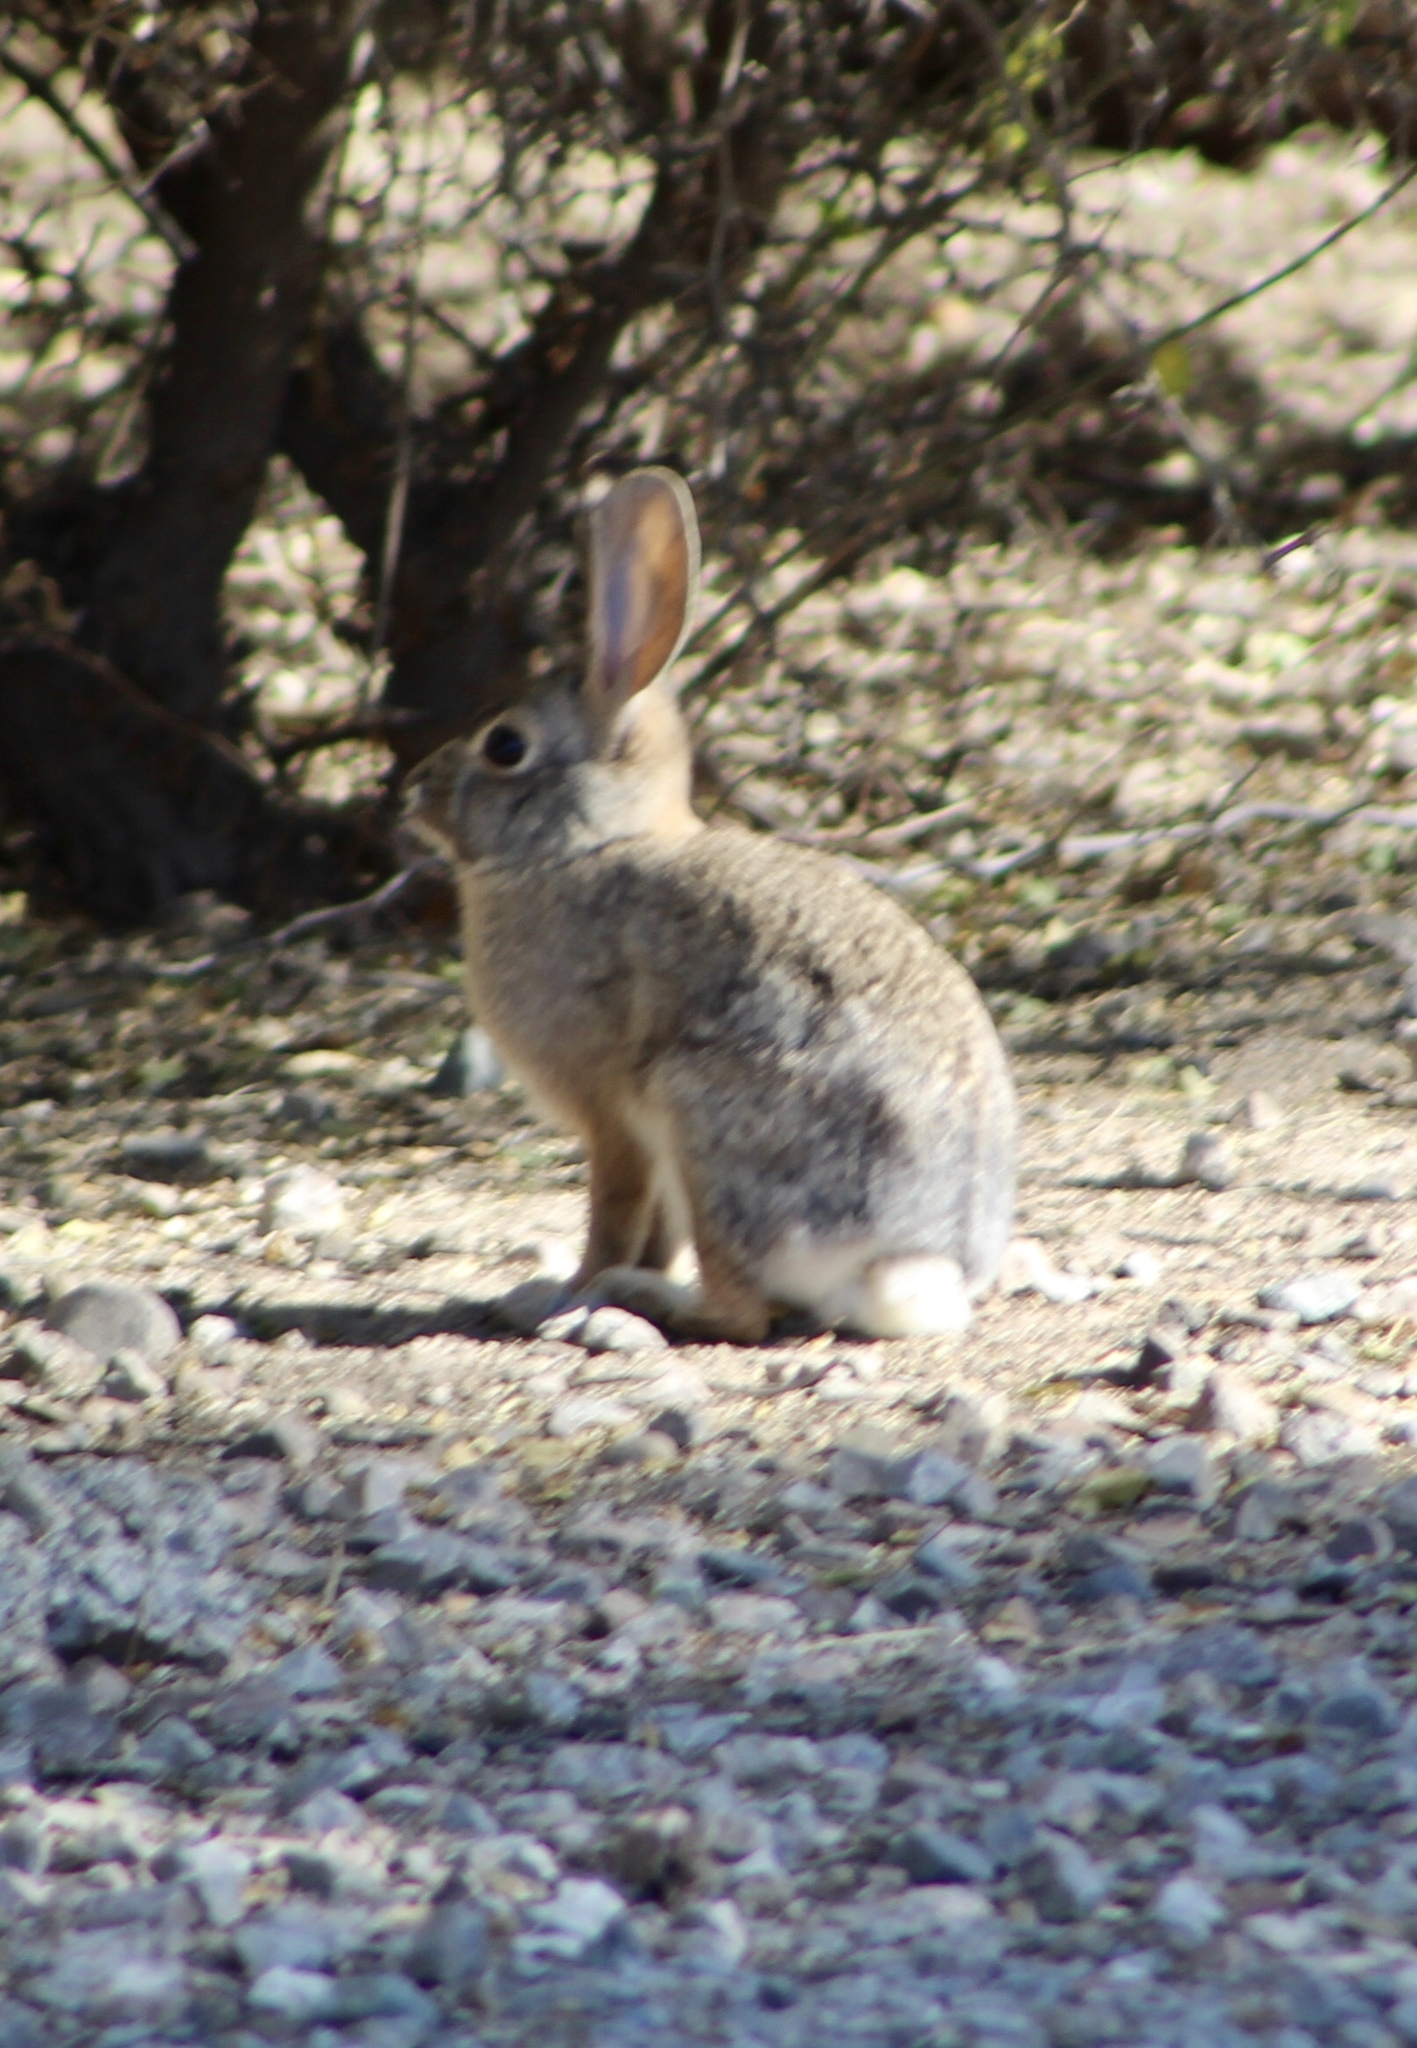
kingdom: Animalia
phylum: Chordata
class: Mammalia
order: Lagomorpha
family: Leporidae
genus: Sylvilagus
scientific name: Sylvilagus audubonii
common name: Desert cottontail
